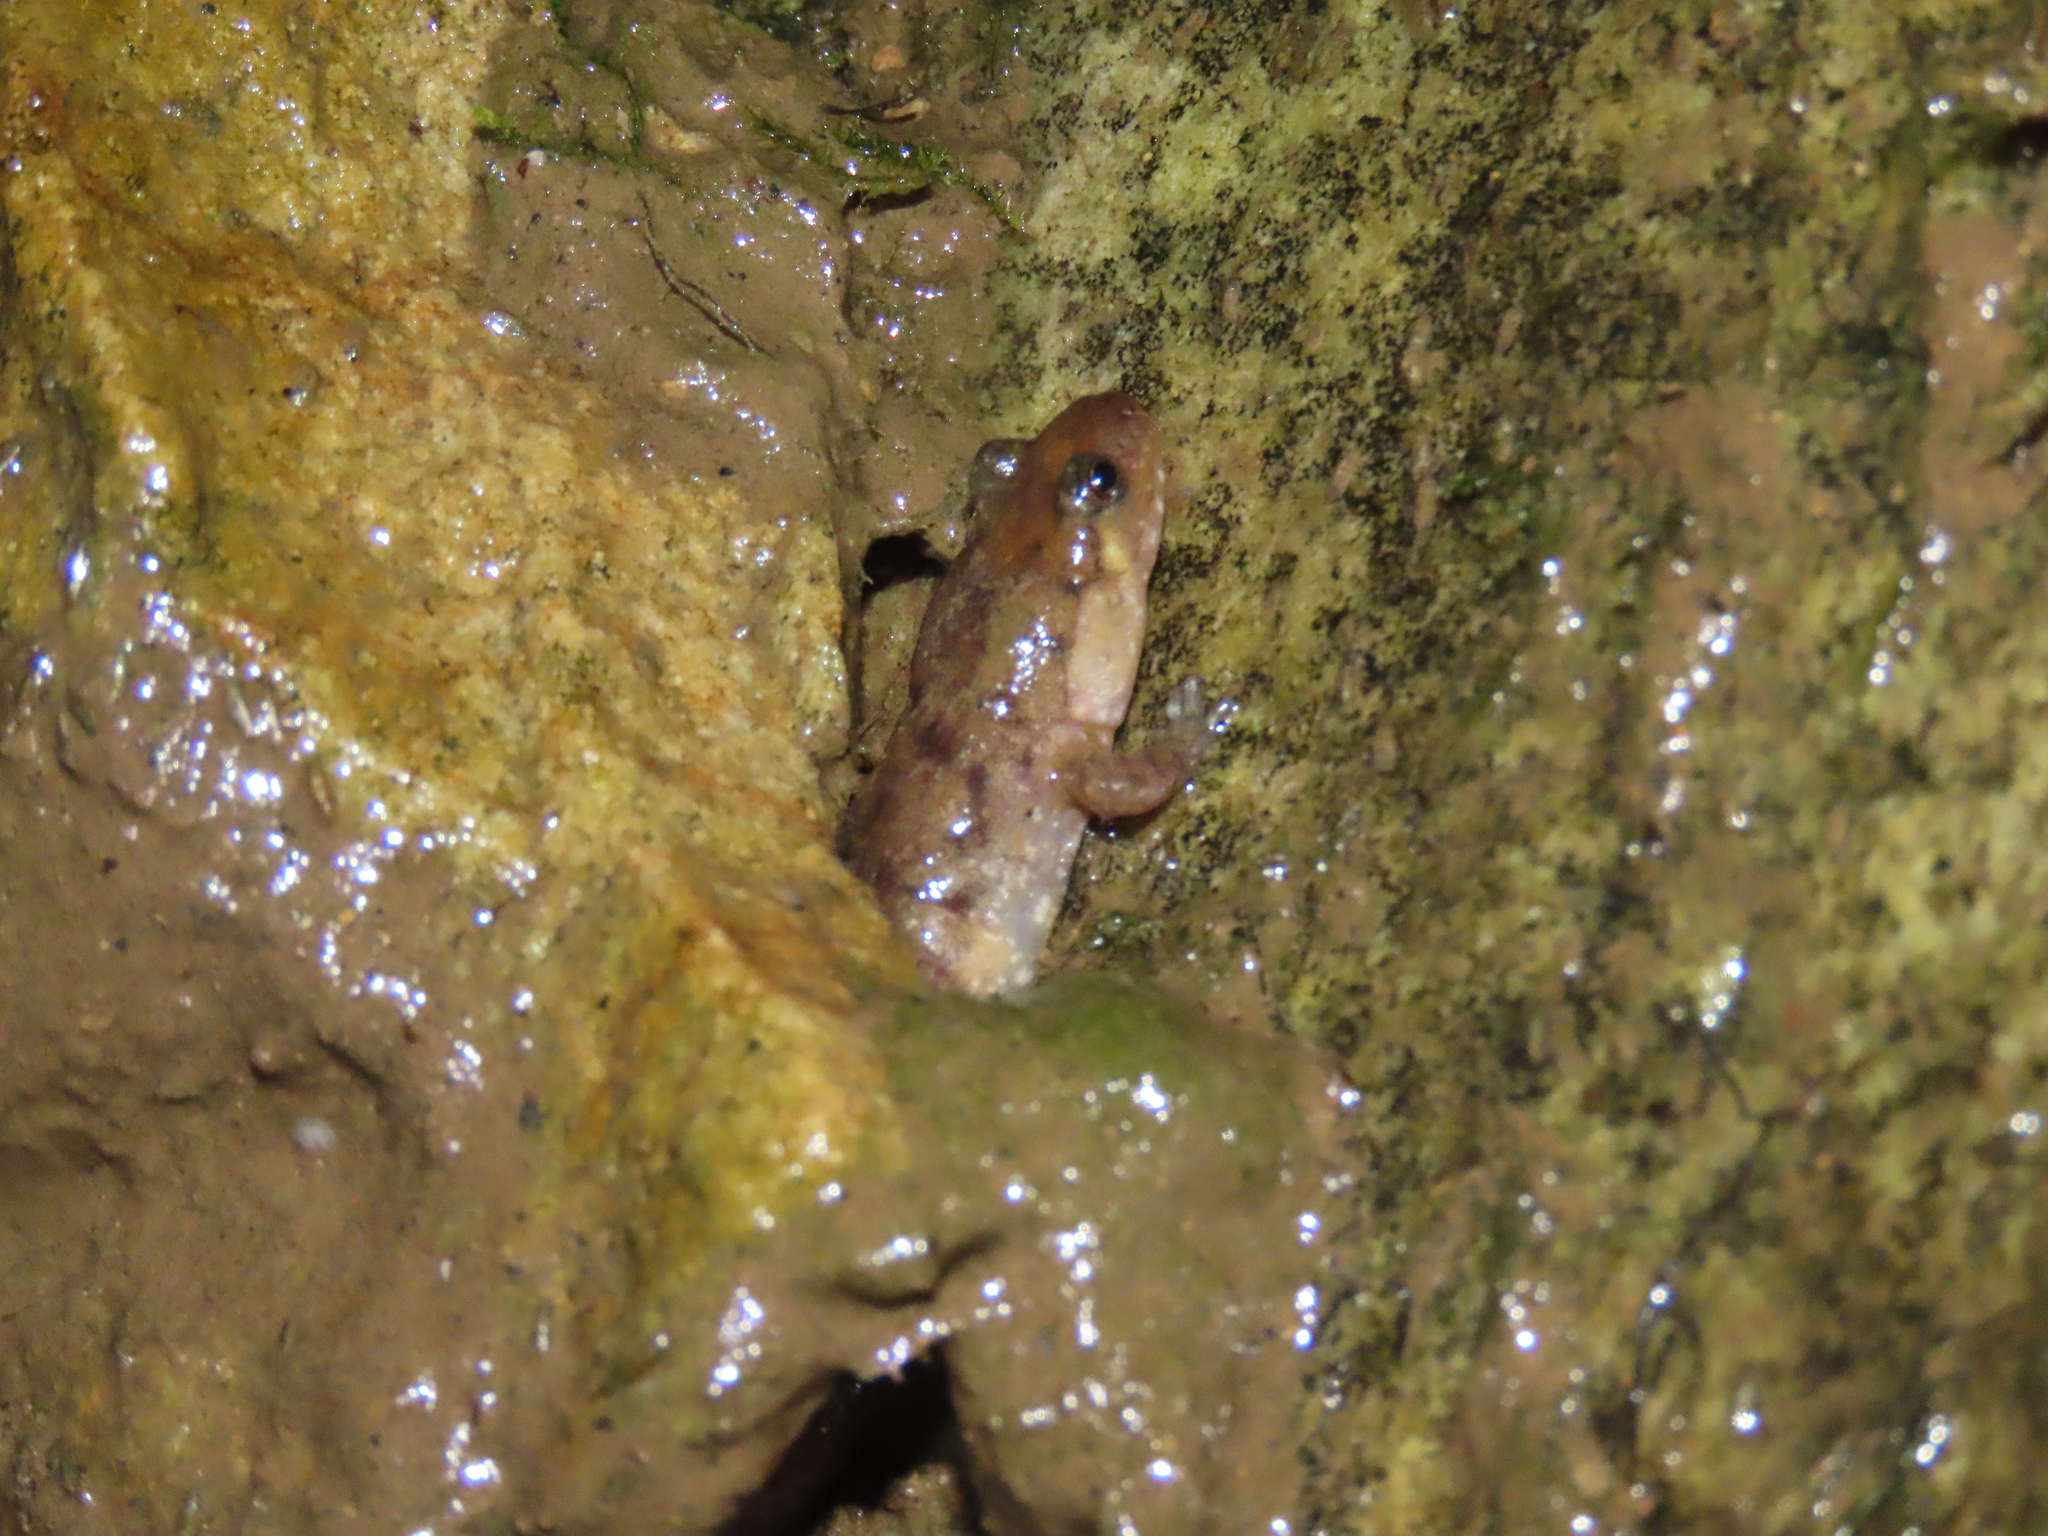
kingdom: Animalia
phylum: Chordata
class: Amphibia
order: Caudata
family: Plethodontidae
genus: Desmognathus
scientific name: Desmognathus monticola
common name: Seal salamander
